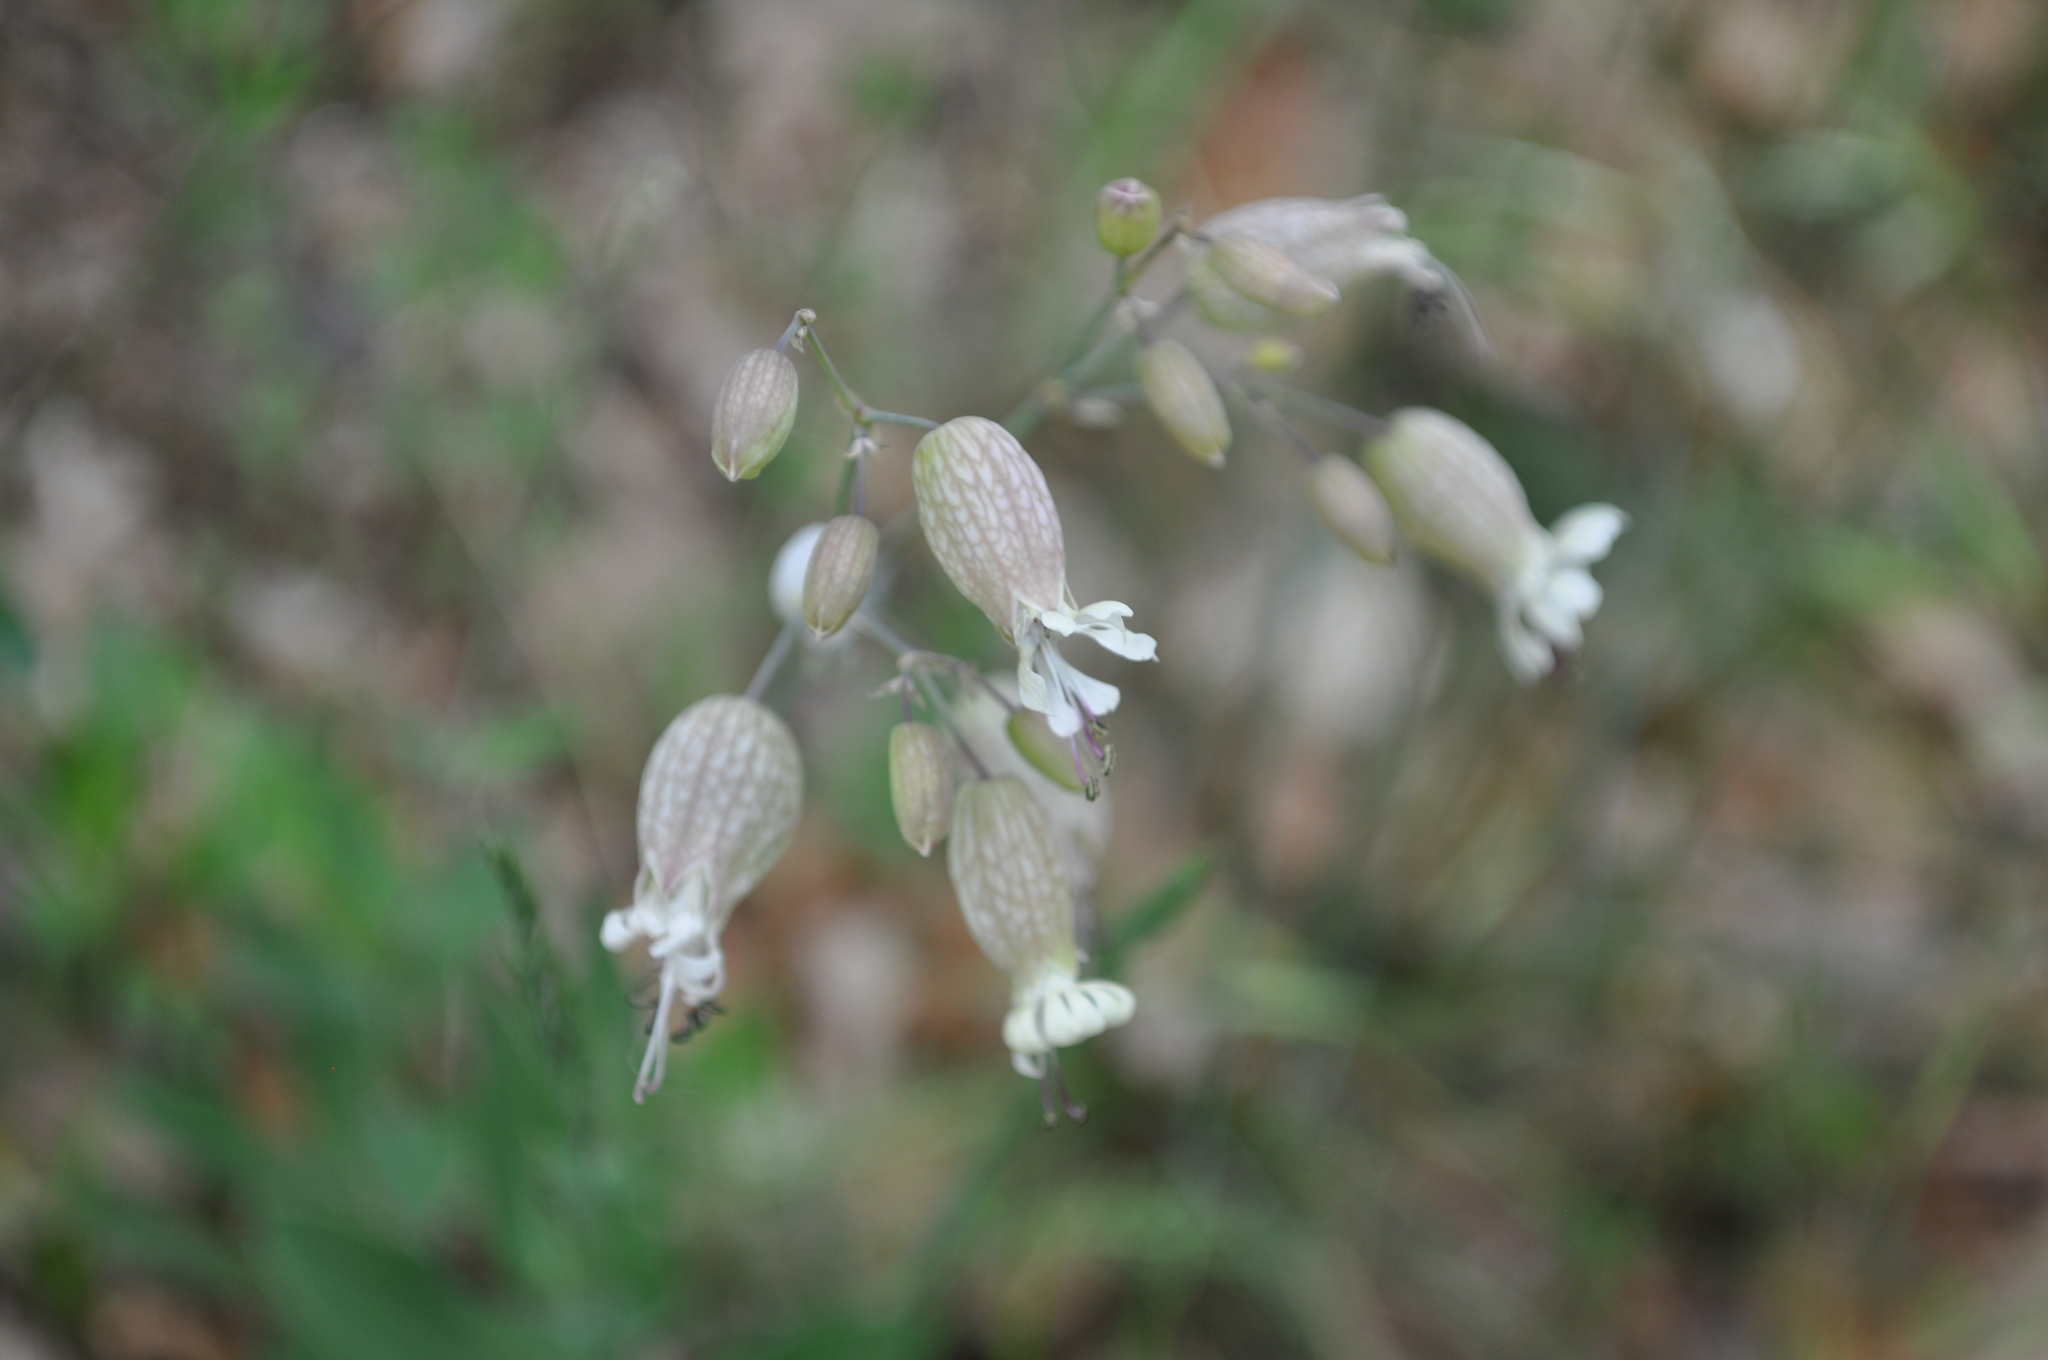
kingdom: Plantae
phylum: Tracheophyta
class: Magnoliopsida
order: Caryophyllales
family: Caryophyllaceae
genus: Silene
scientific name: Silene vulgaris
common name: Bladder campion
